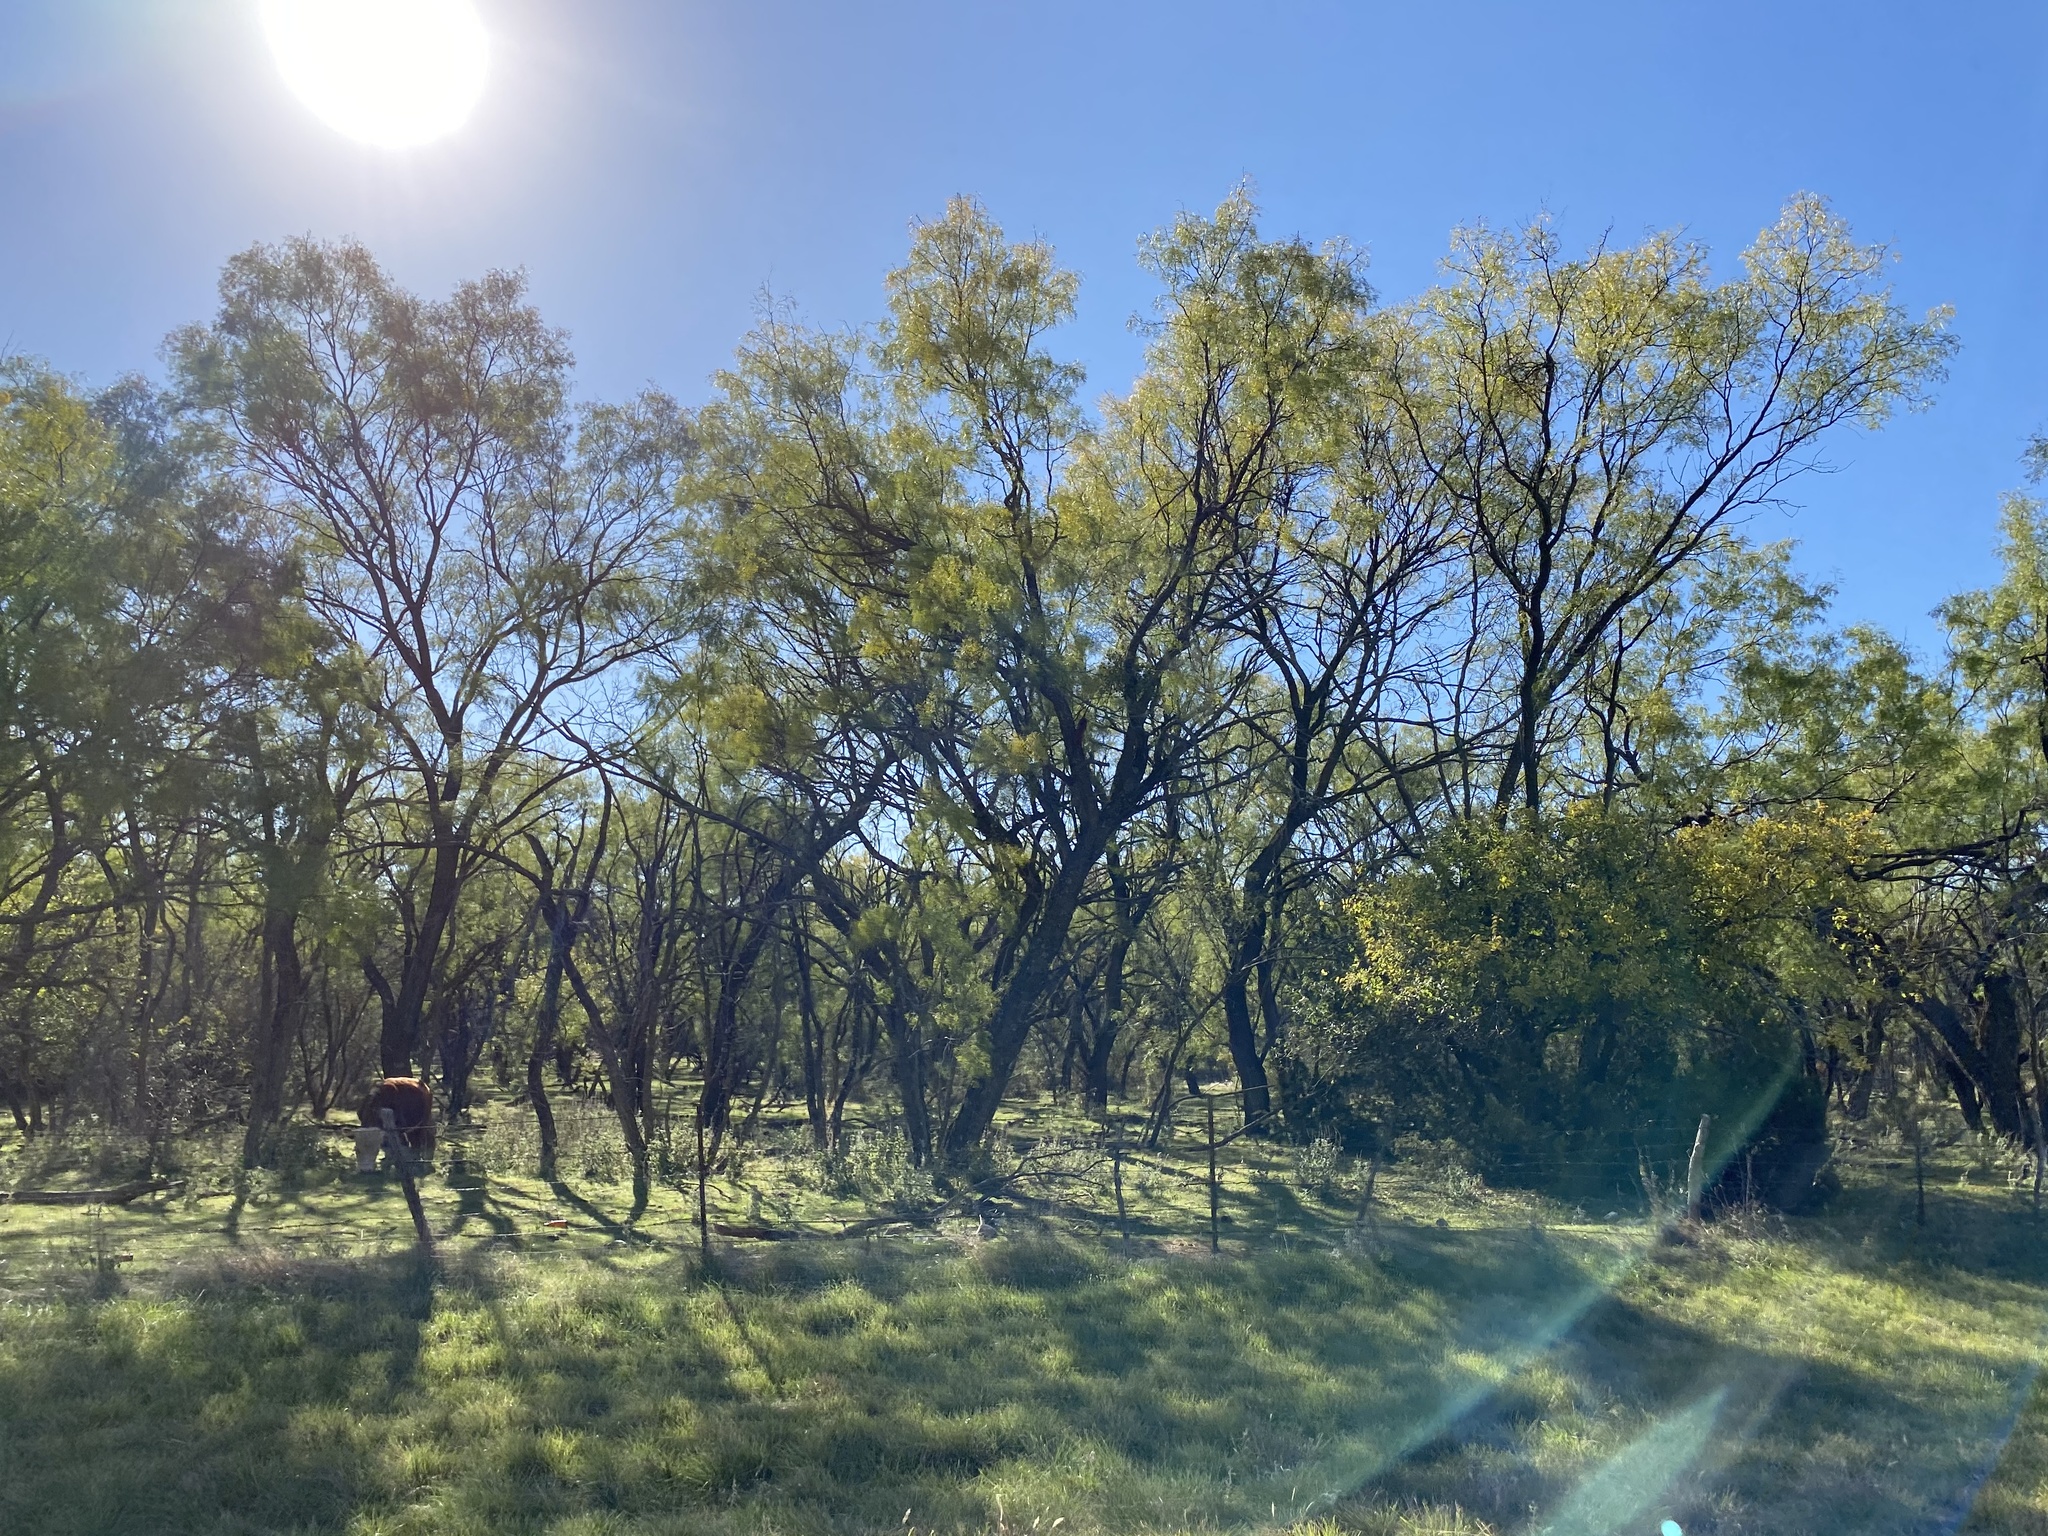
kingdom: Plantae
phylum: Tracheophyta
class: Magnoliopsida
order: Fabales
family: Fabaceae
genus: Prosopis
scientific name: Prosopis glandulosa
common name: Honey mesquite
